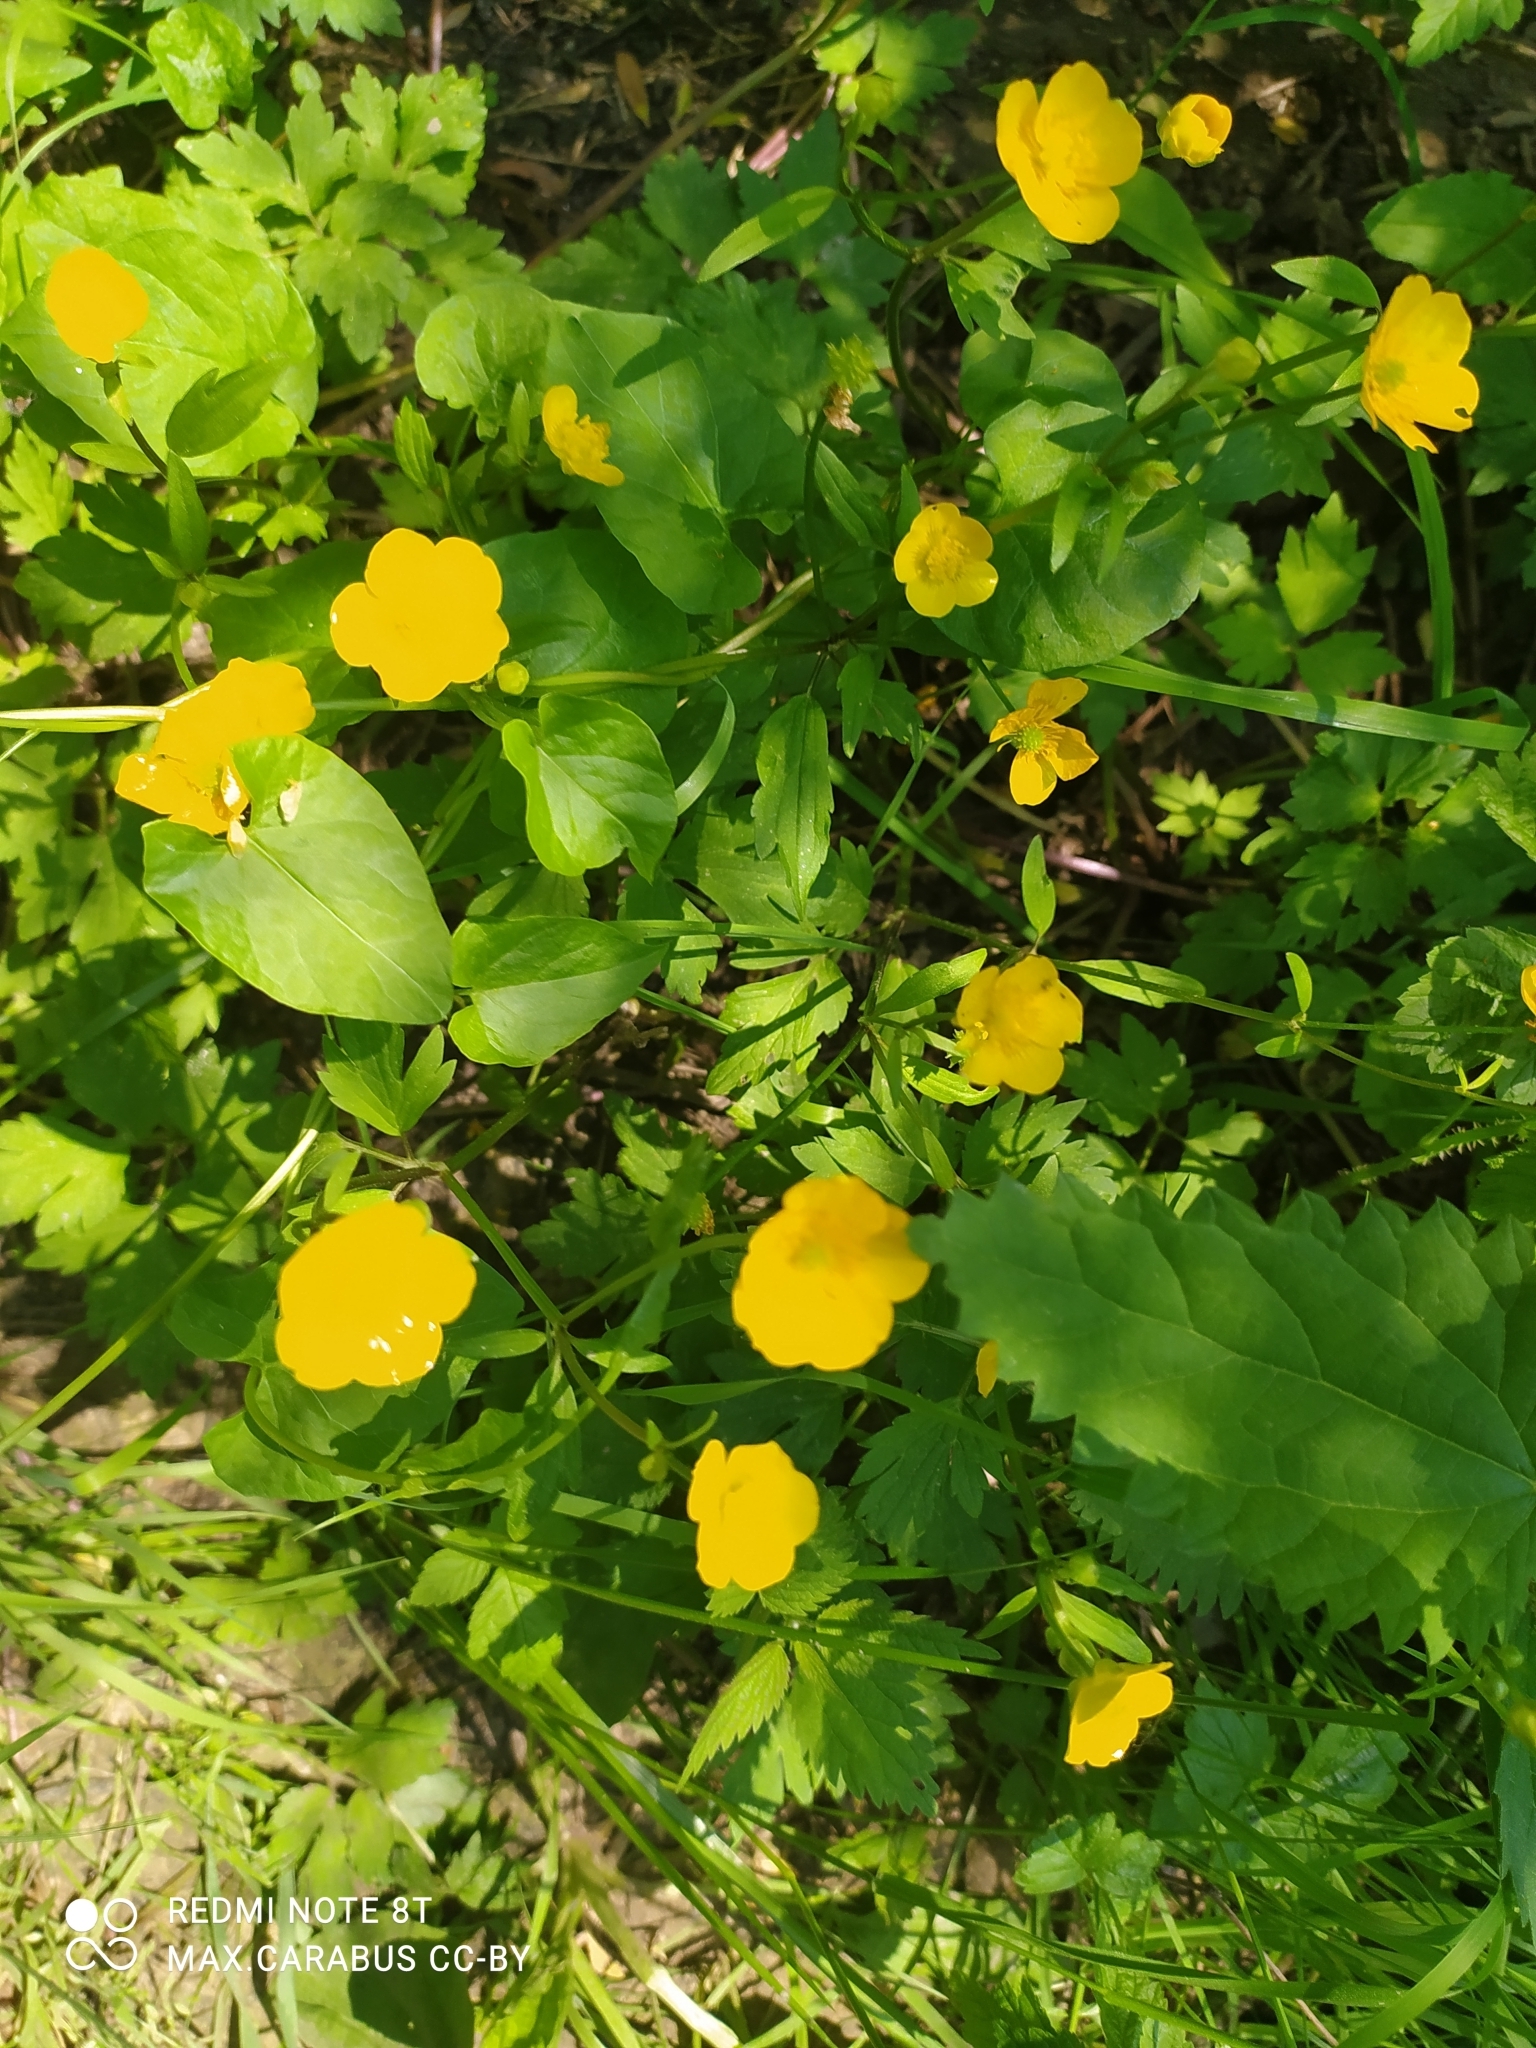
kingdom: Plantae
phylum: Tracheophyta
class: Magnoliopsida
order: Ranunculales
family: Ranunculaceae
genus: Ranunculus
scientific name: Ranunculus repens
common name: Creeping buttercup
